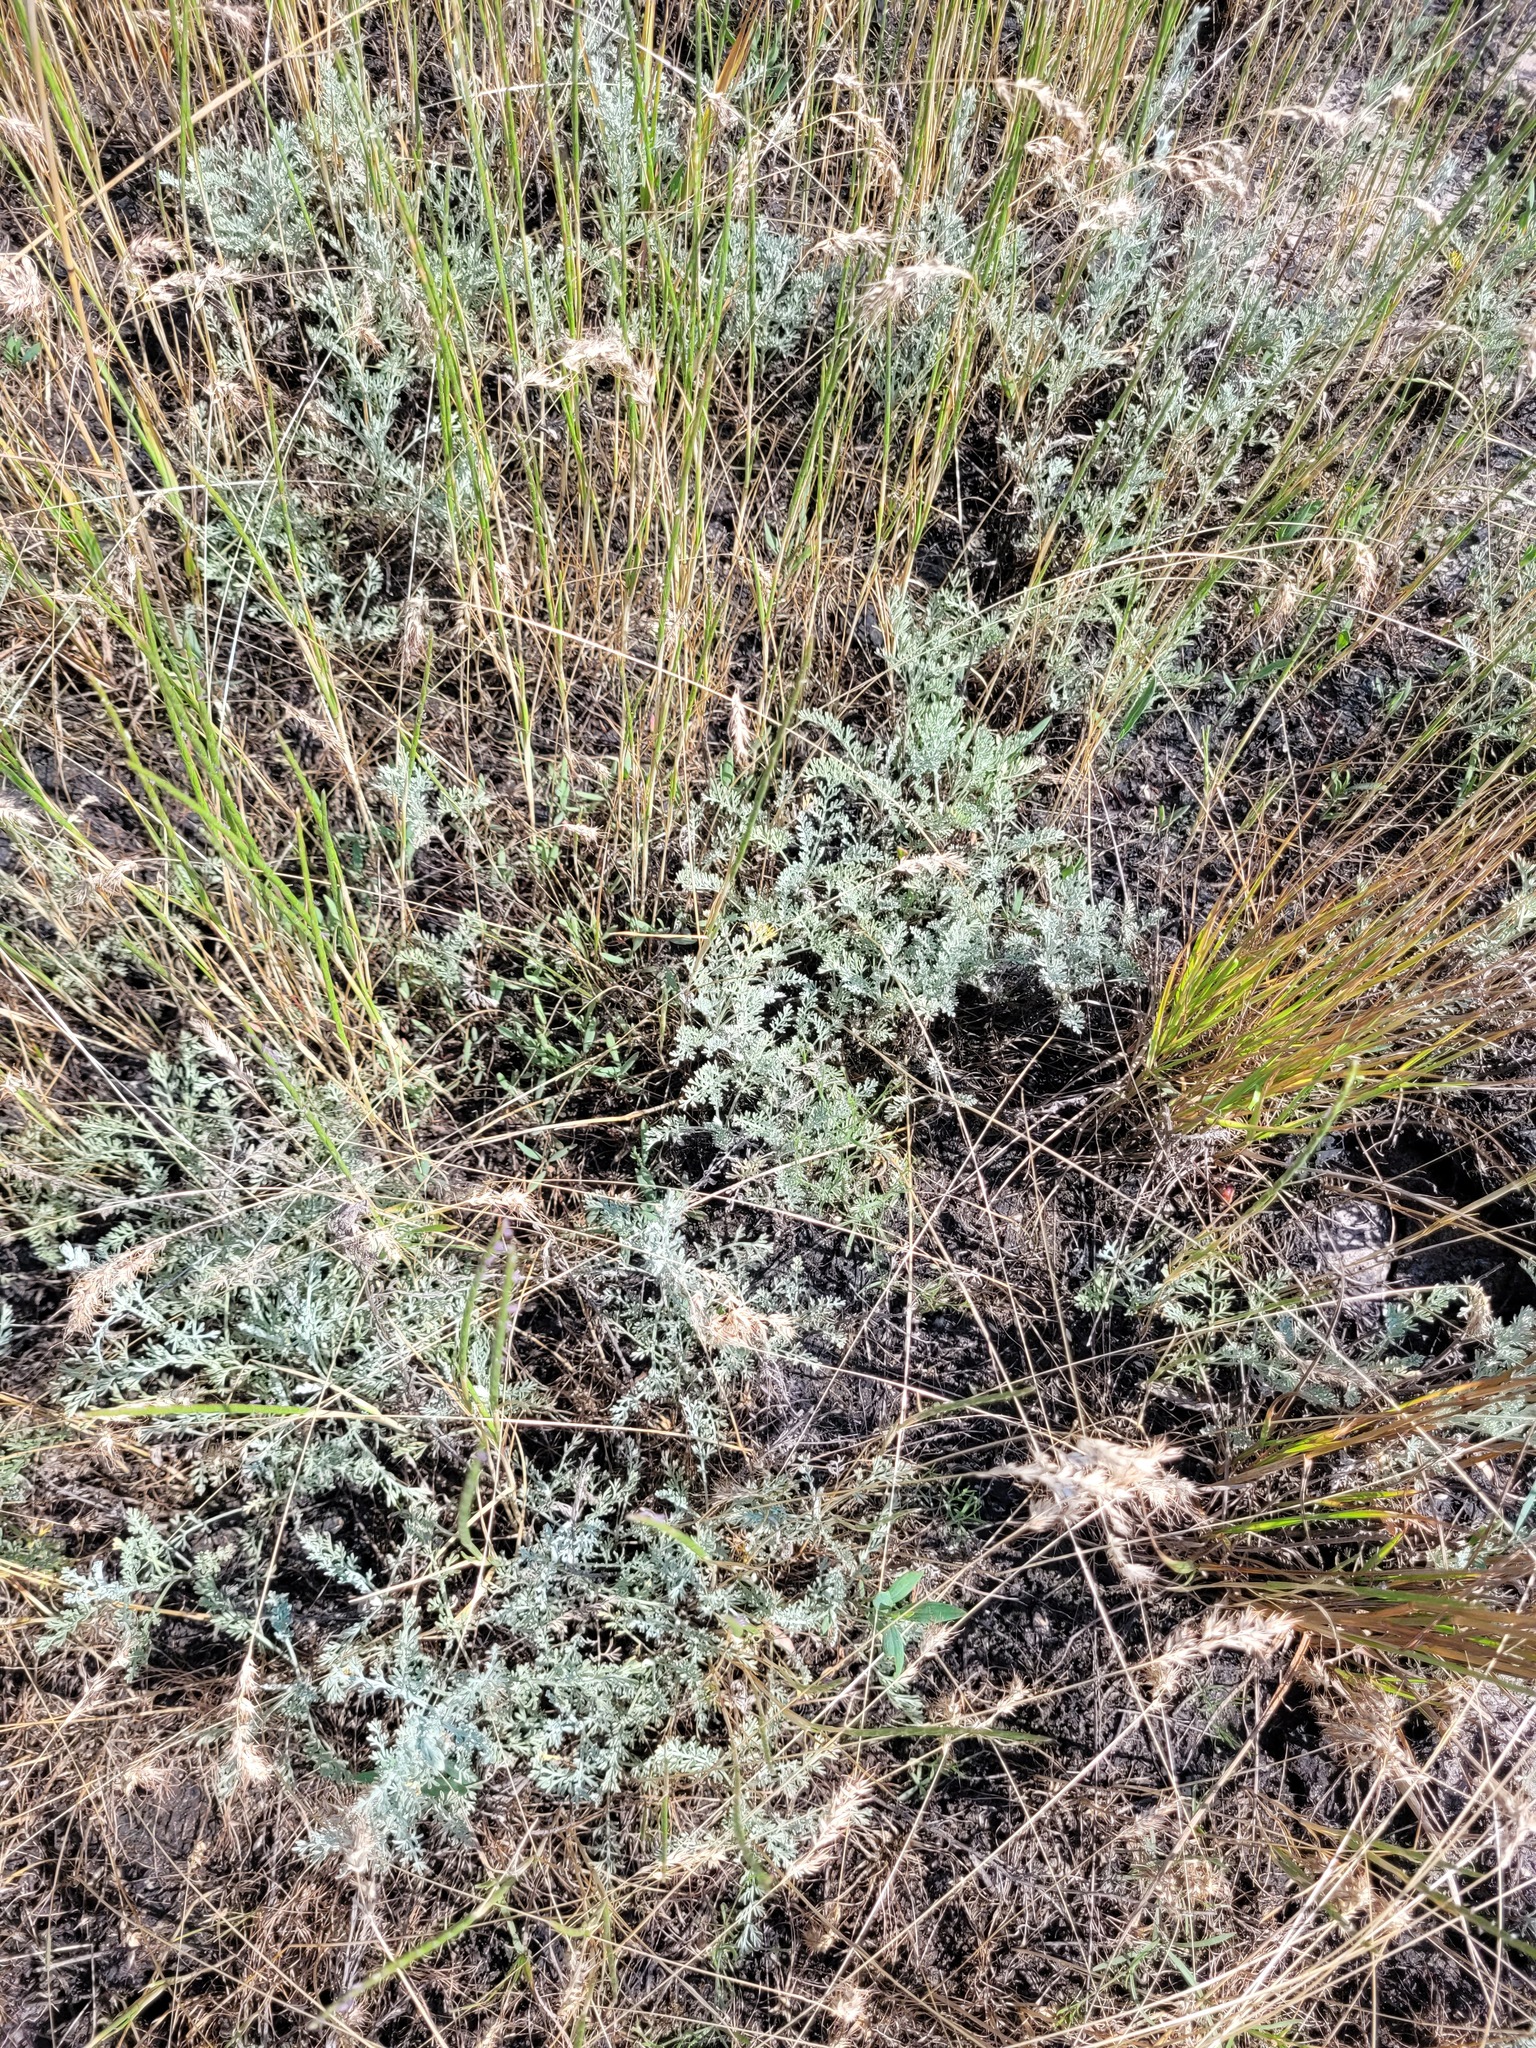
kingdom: Plantae
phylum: Tracheophyta
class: Magnoliopsida
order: Asterales
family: Asteraceae
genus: Artemisia
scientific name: Artemisia lercheana
